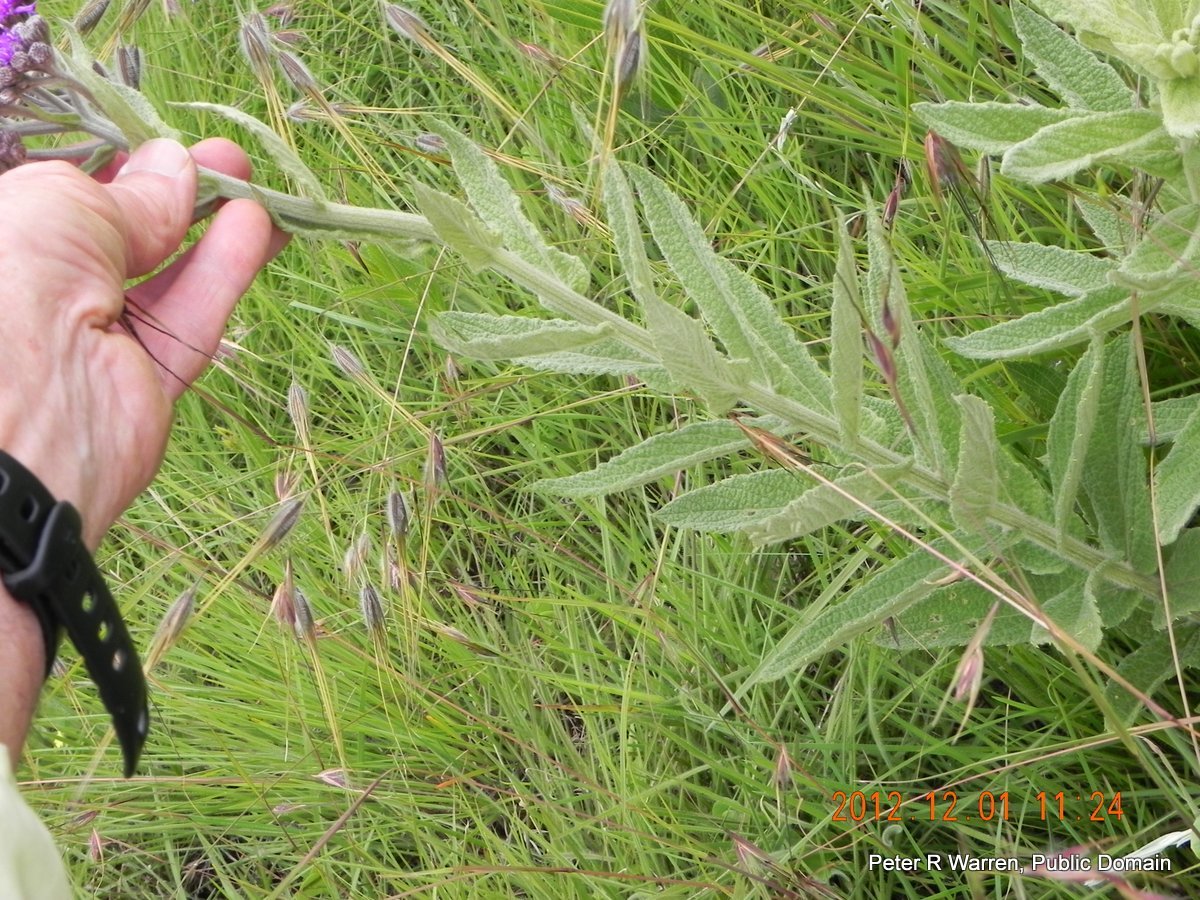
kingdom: Plantae
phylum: Tracheophyta
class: Magnoliopsida
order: Asterales
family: Asteraceae
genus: Hilliardiella
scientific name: Hilliardiella hirsuta
